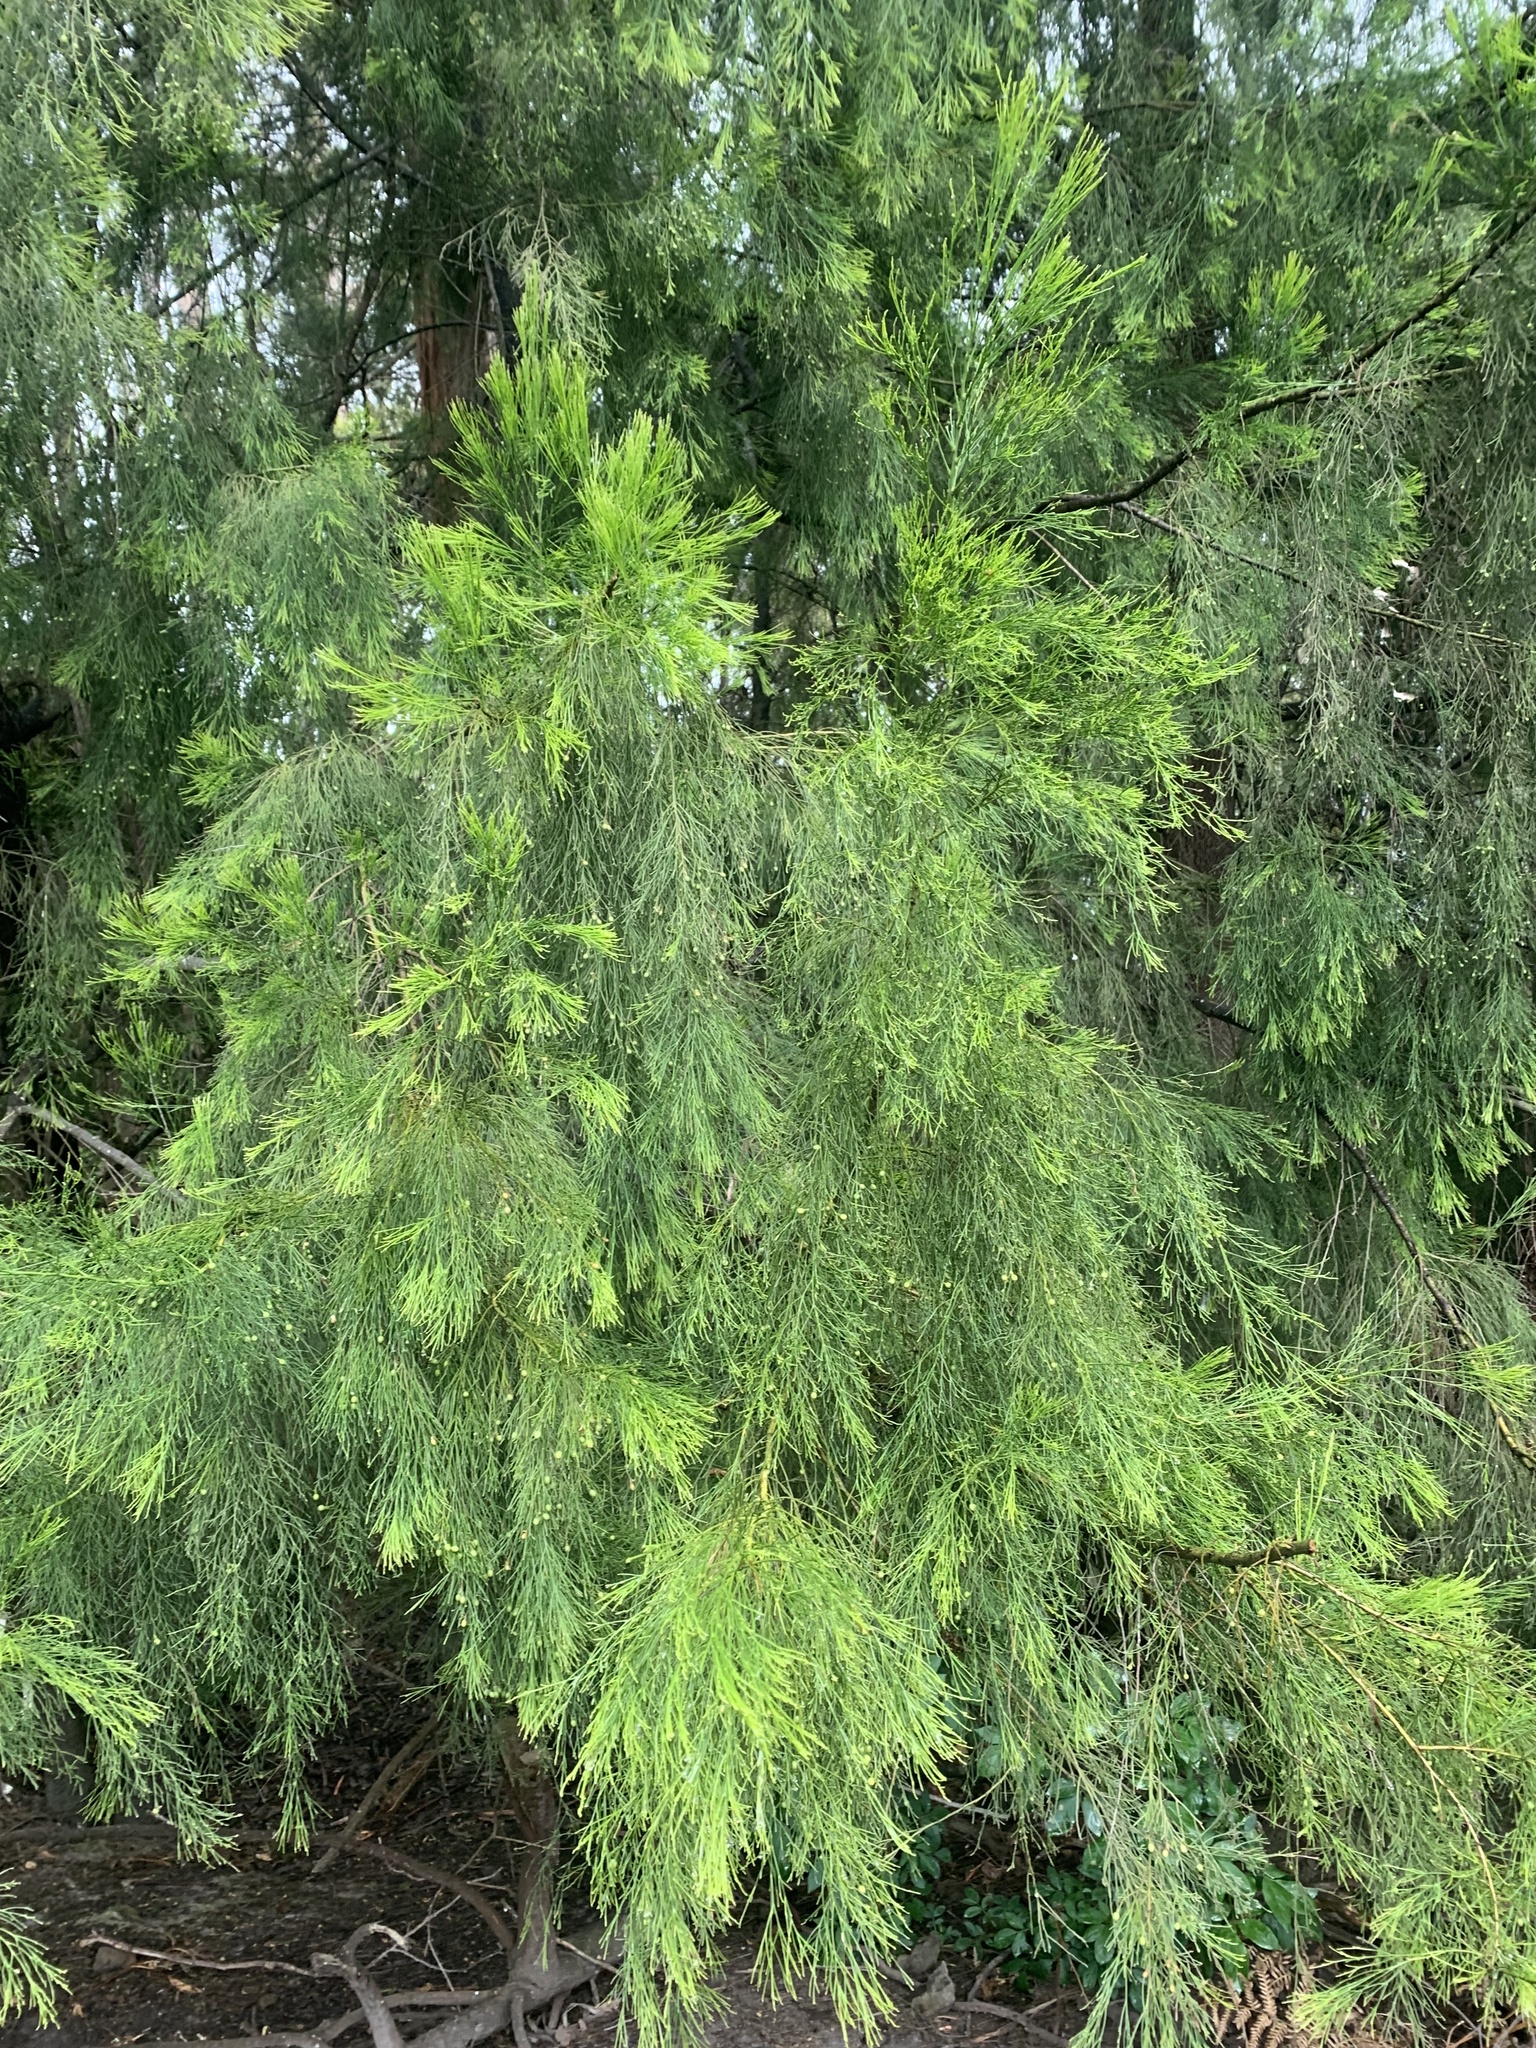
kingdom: Plantae
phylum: Tracheophyta
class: Magnoliopsida
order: Santalales
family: Santalaceae
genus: Exocarpos
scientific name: Exocarpos cupressiformis
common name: Cherry ballart
